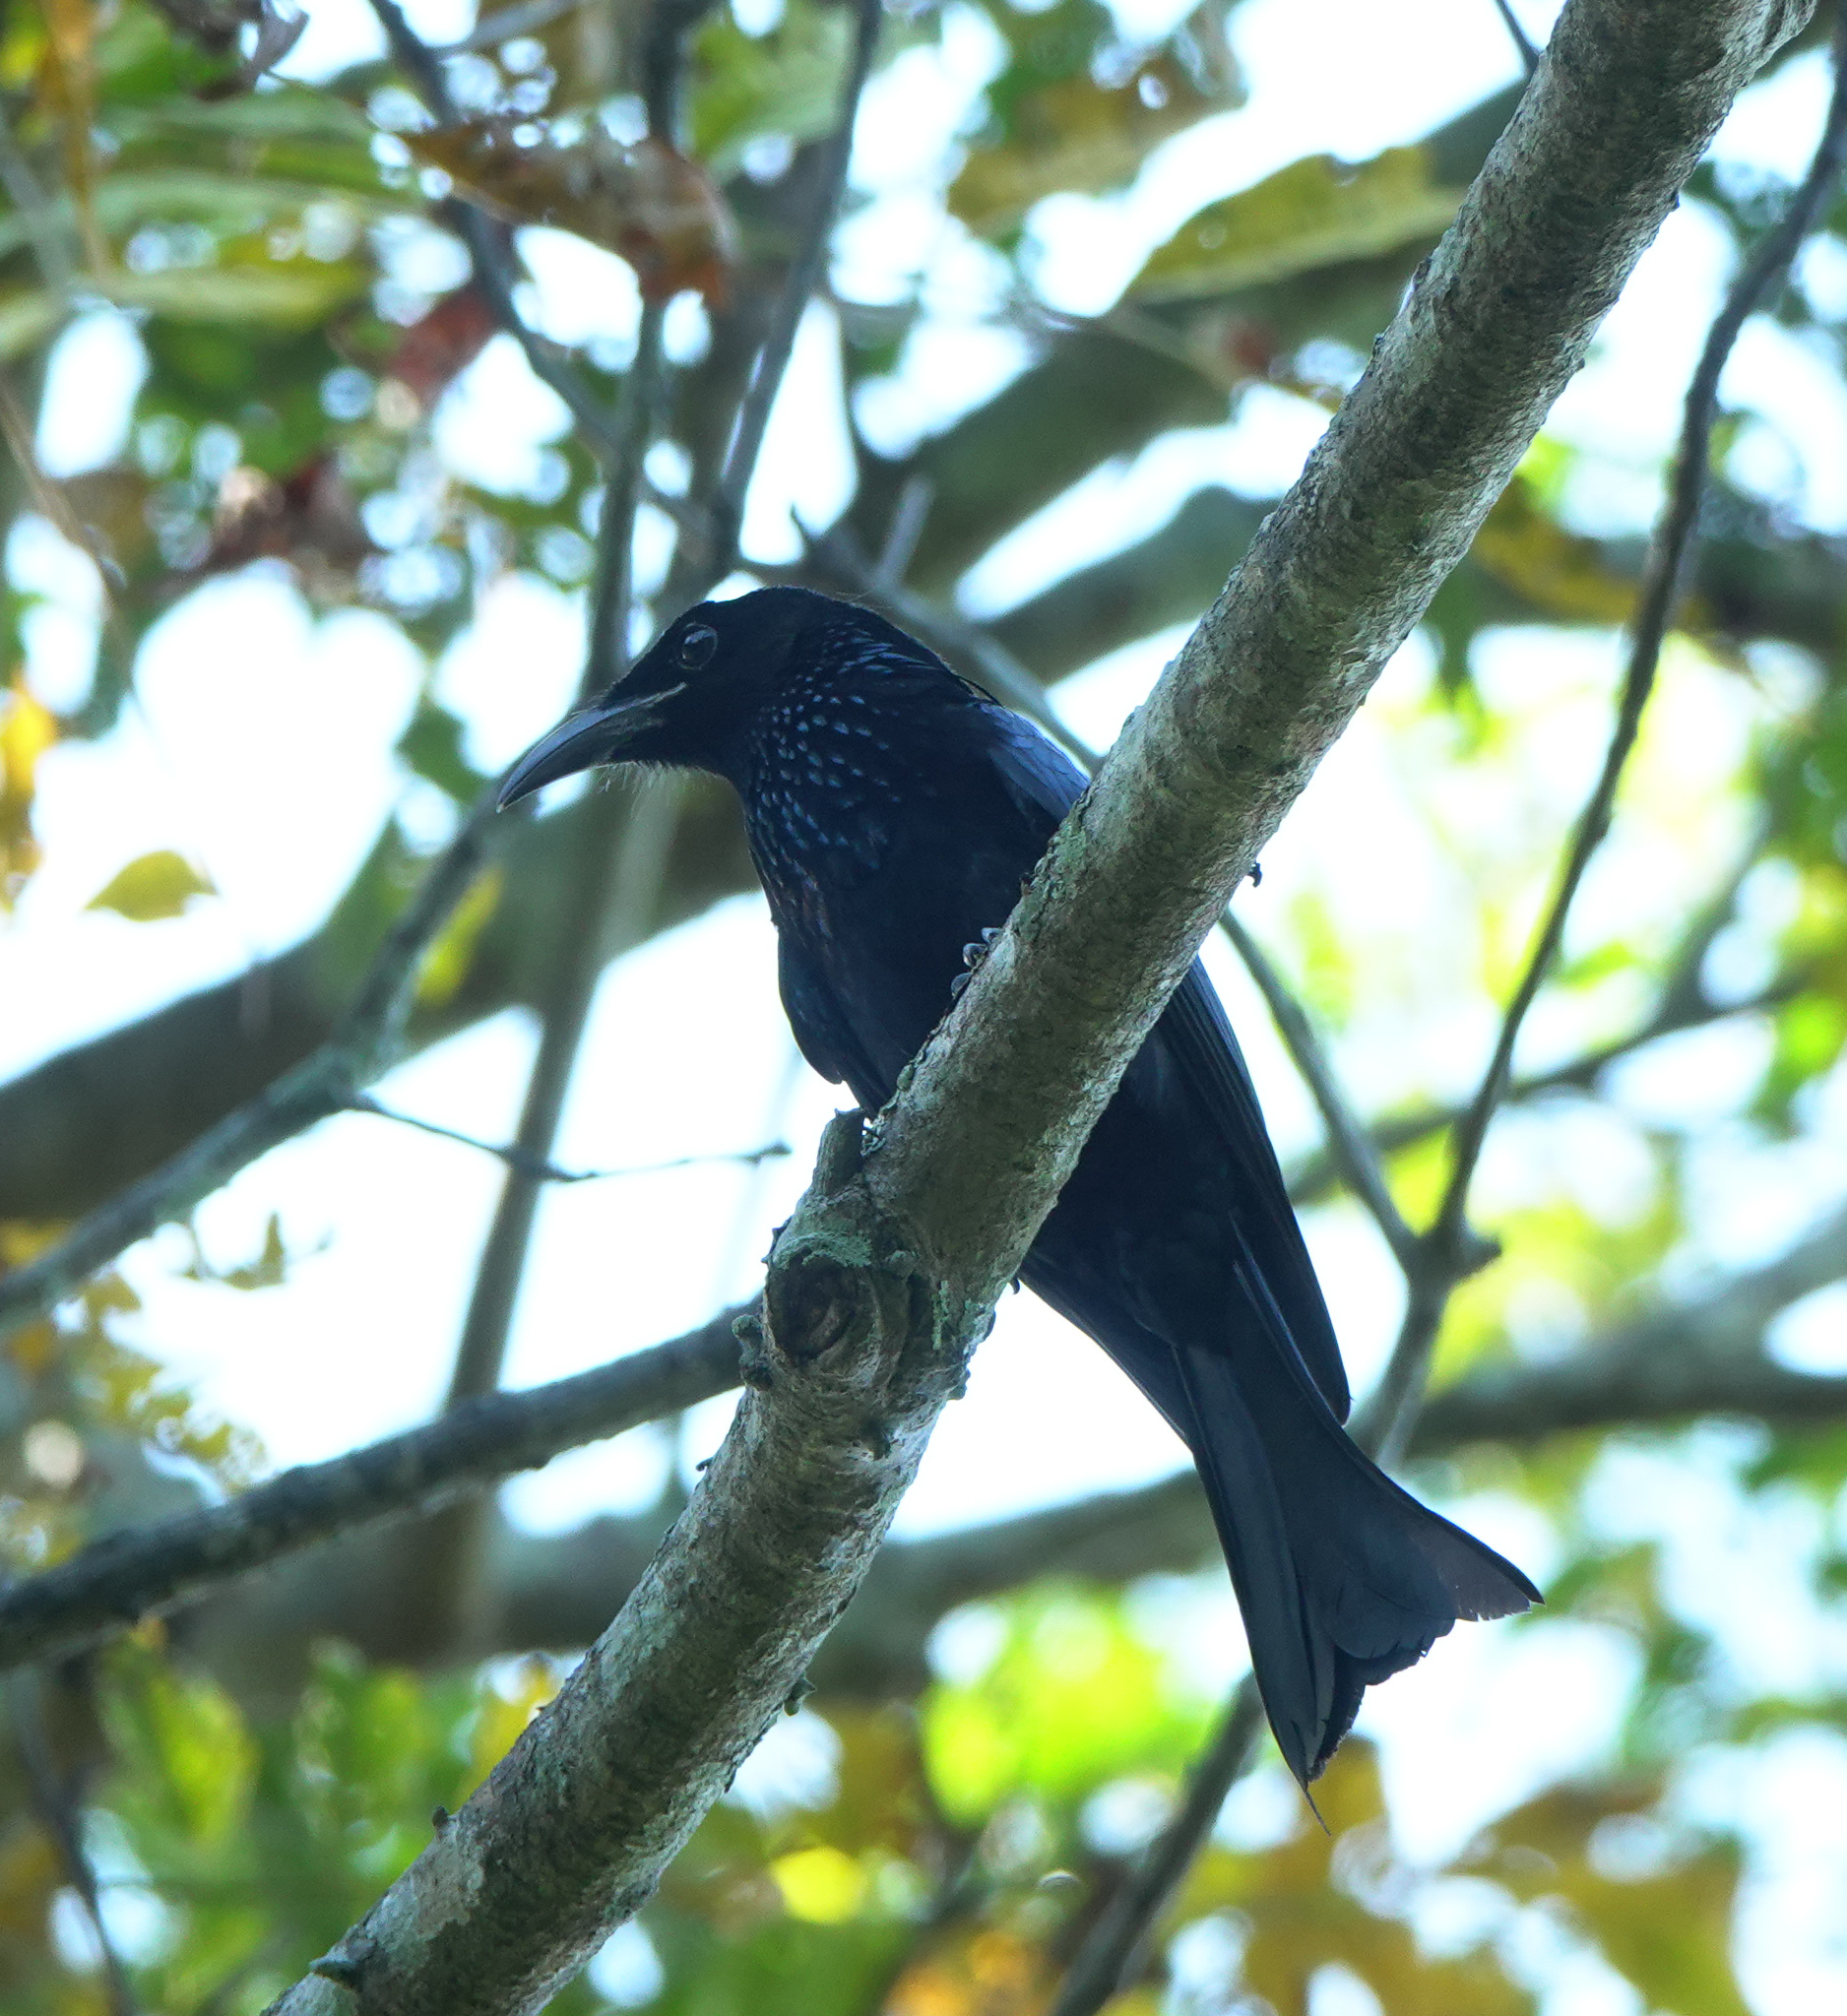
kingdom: Animalia
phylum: Chordata
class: Aves
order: Passeriformes
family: Dicruridae
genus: Dicrurus
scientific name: Dicrurus hottentottus
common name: Hair-crested drongo
